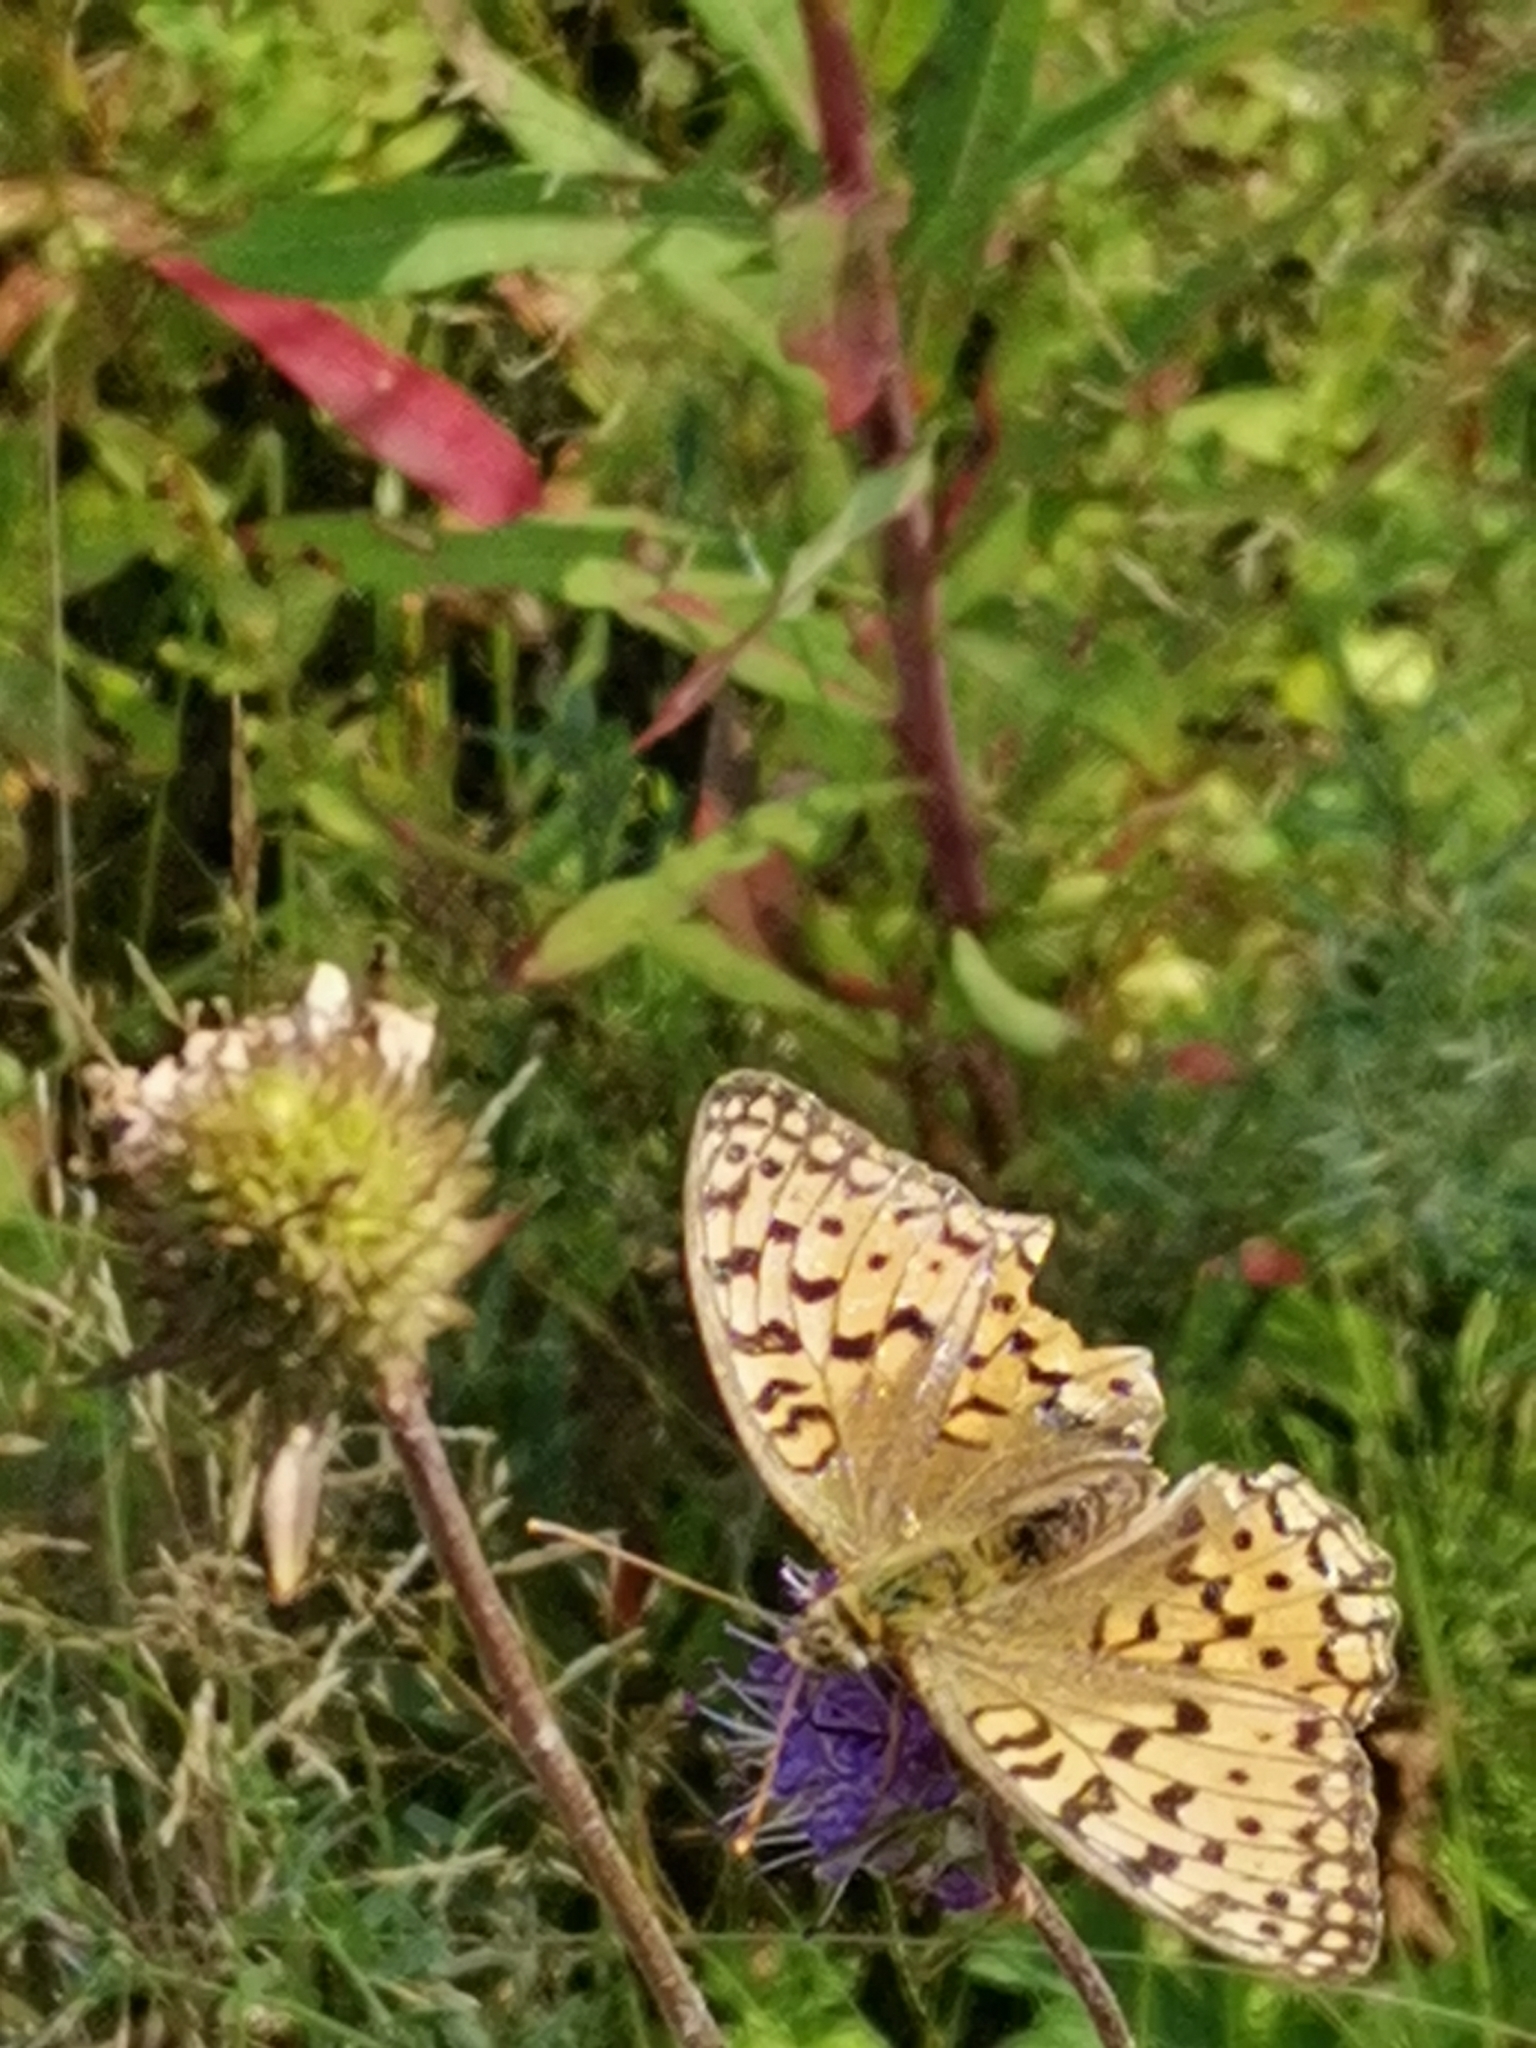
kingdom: Animalia
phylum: Arthropoda
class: Insecta
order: Lepidoptera
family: Nymphalidae
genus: Fabriciana
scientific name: Fabriciana adippe
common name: High brown fritillary
